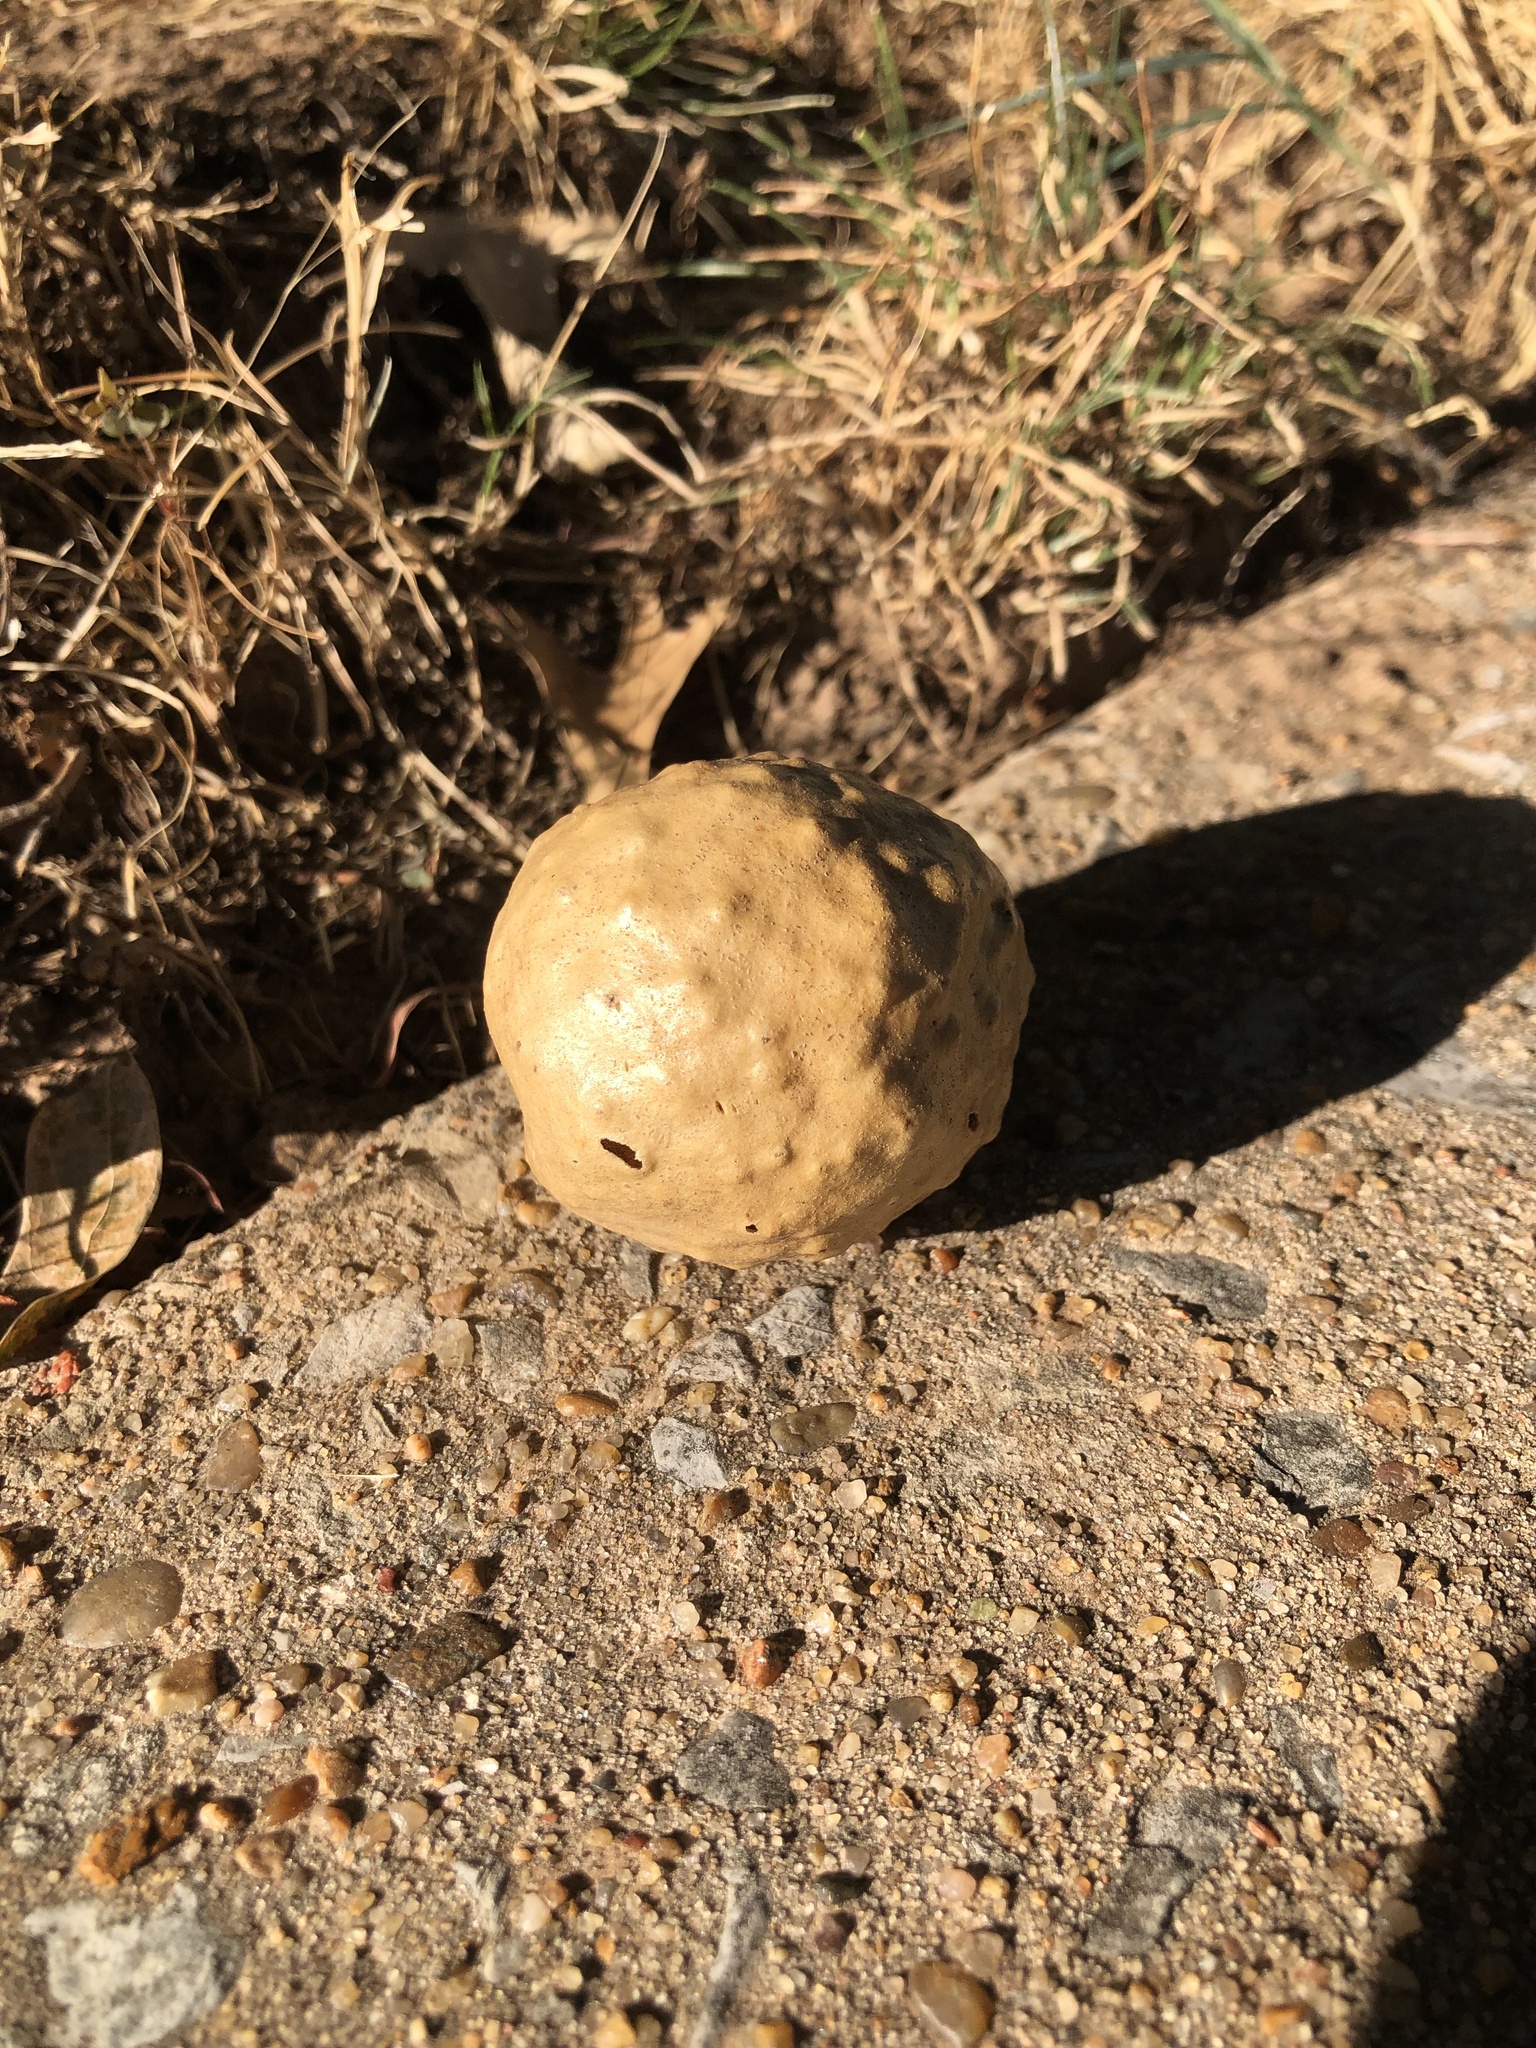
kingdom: Animalia
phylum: Arthropoda
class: Insecta
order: Hymenoptera
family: Cynipidae
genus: Amphibolips
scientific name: Amphibolips
